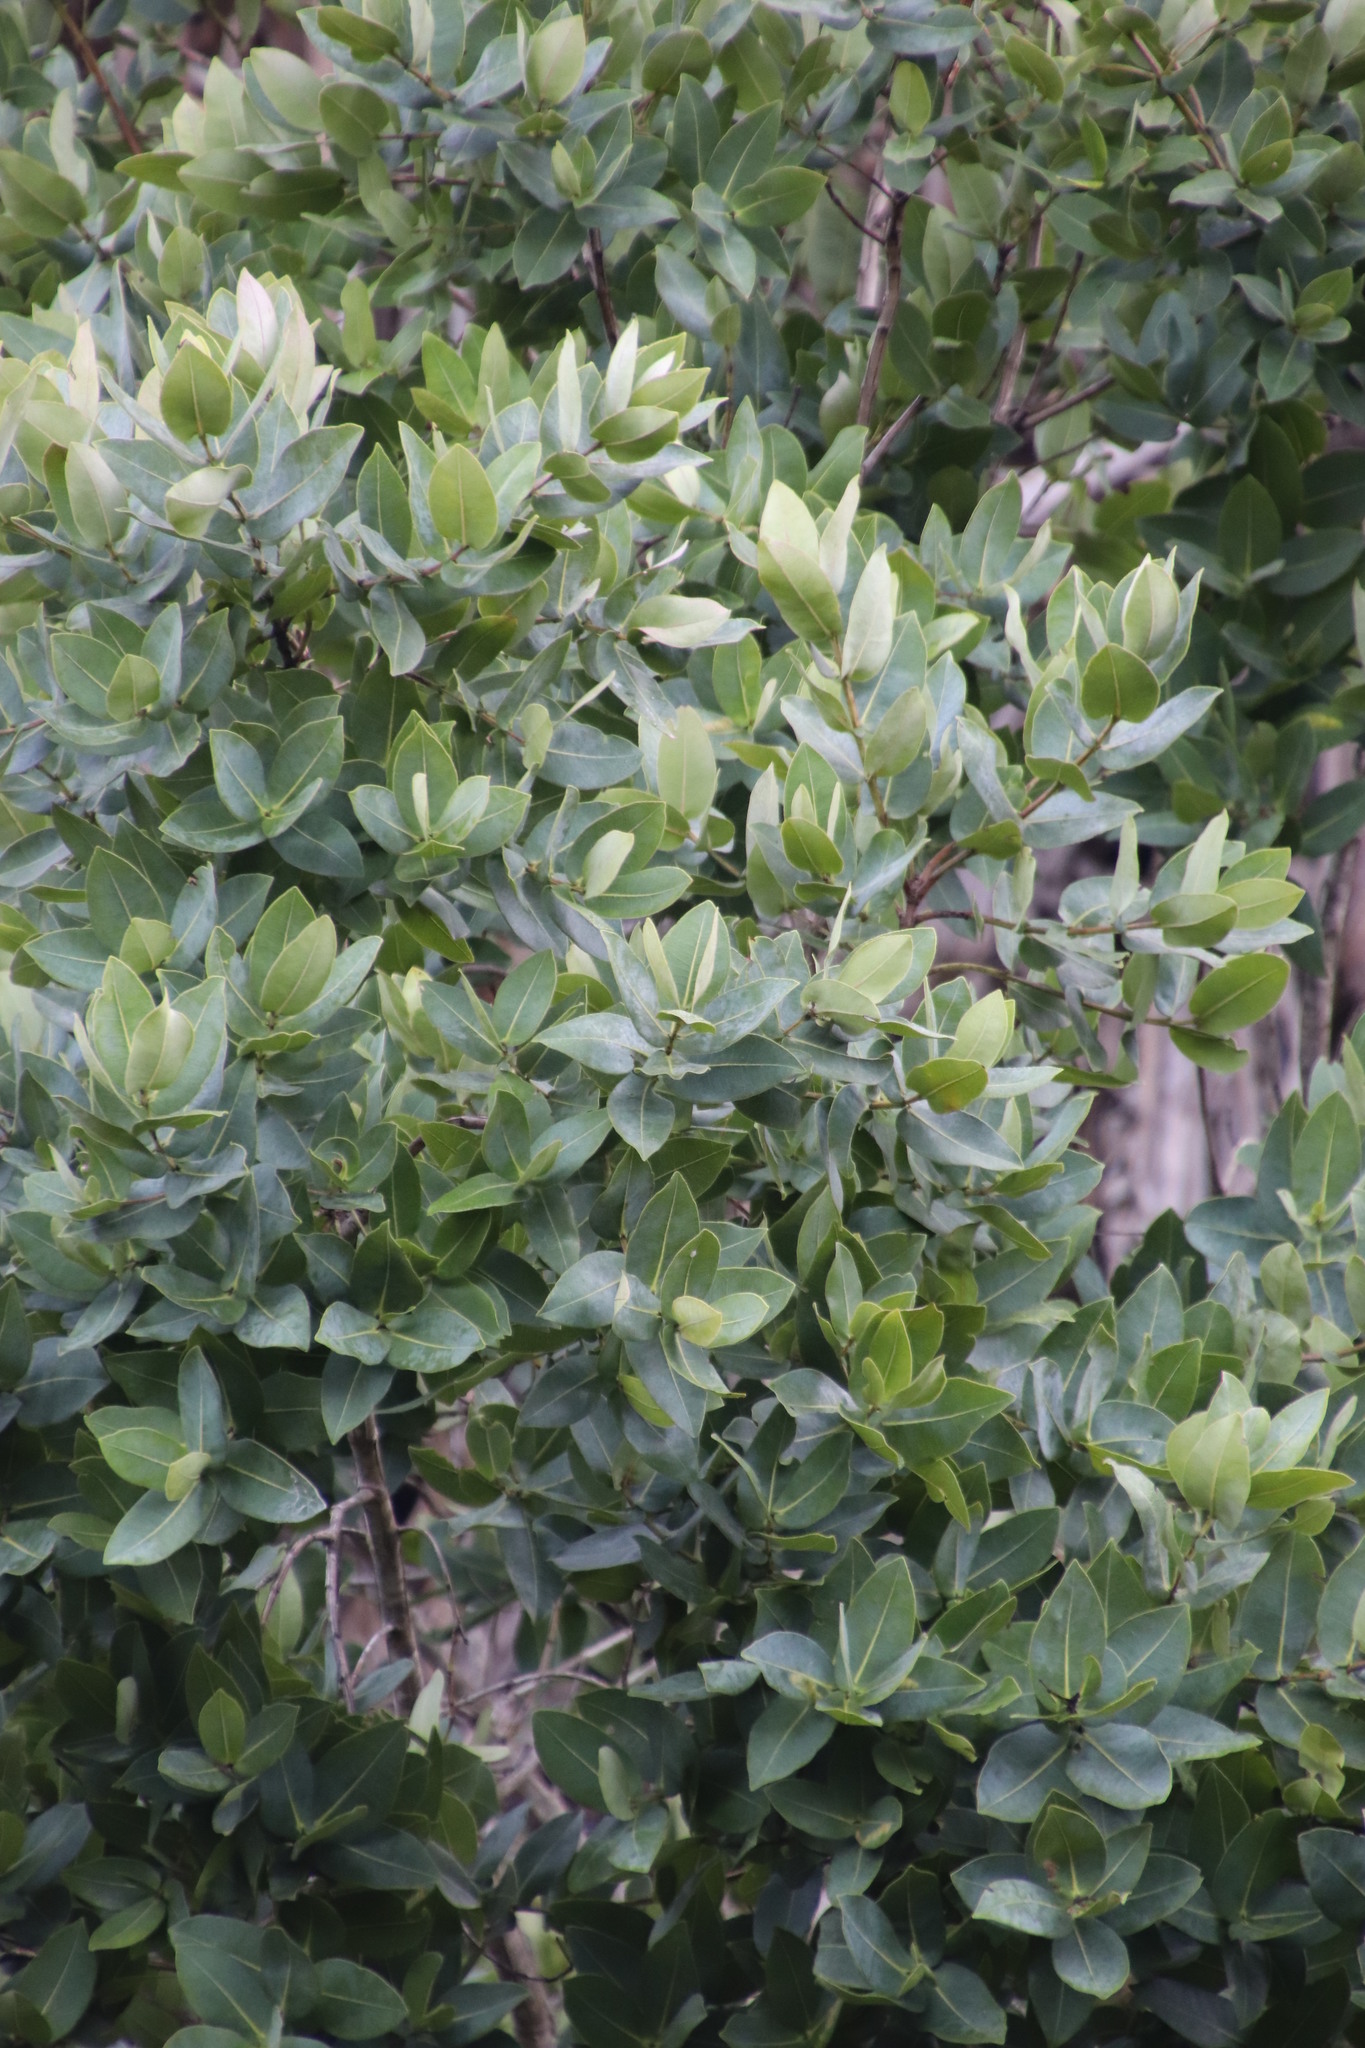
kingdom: Plantae
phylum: Tracheophyta
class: Magnoliopsida
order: Myrtales
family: Myrtaceae
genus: Syzygium
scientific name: Syzygium cordatum
